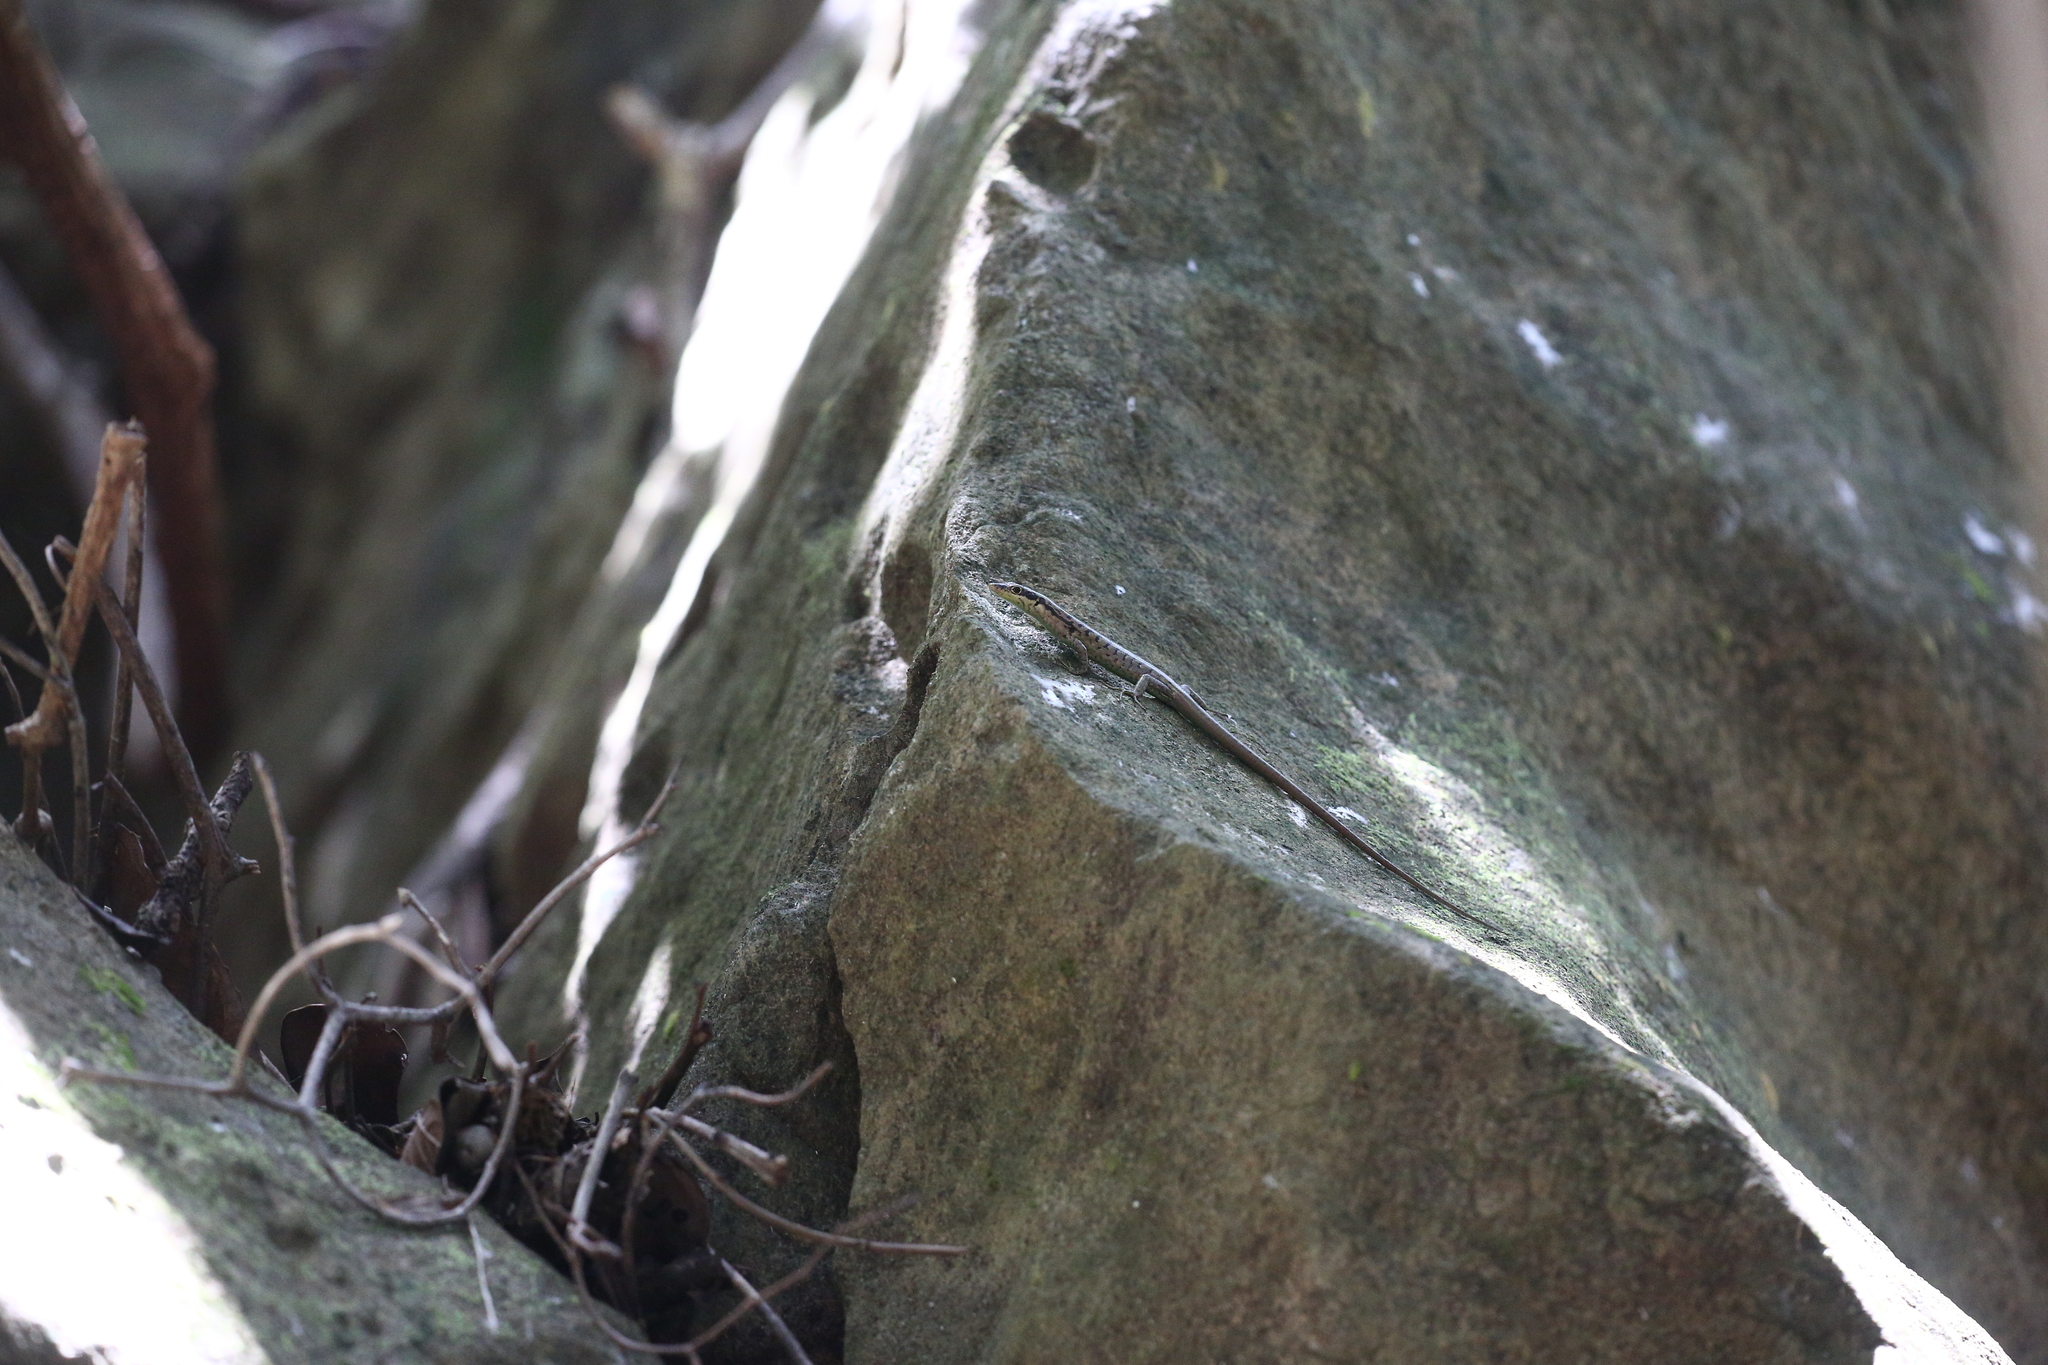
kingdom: Animalia
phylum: Chordata
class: Squamata
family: Scincidae
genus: Epibator
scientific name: Epibator nigrofasciolatus
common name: Green-bellied tree skink
